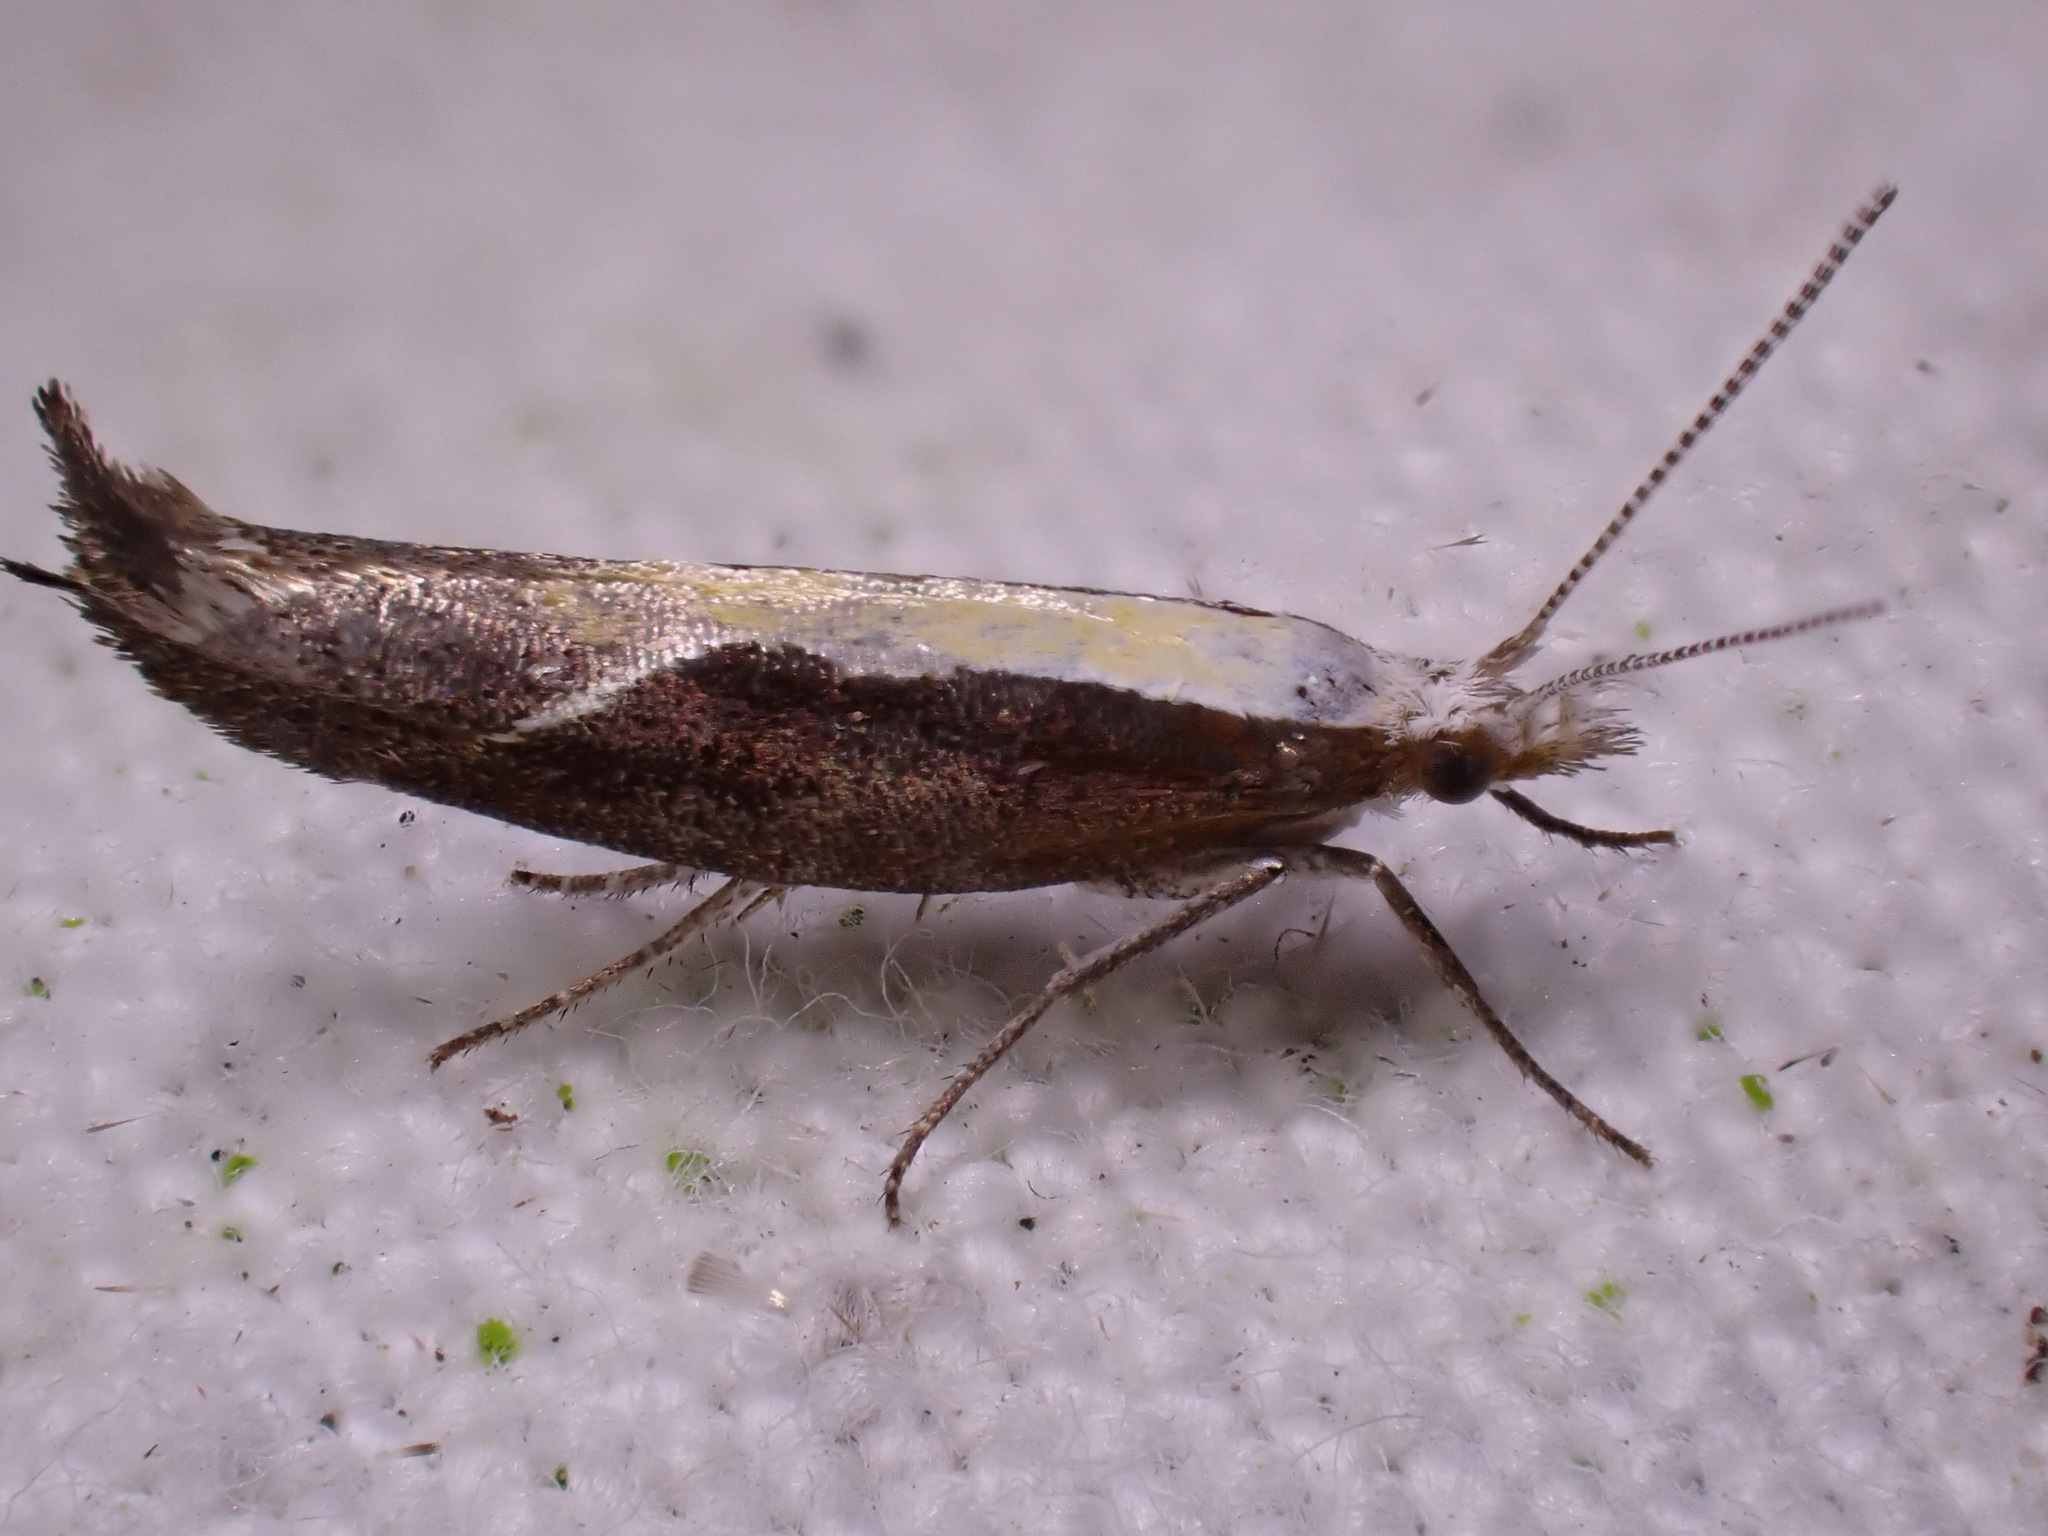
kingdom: Animalia
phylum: Arthropoda
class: Insecta
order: Lepidoptera
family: Ypsolophidae
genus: Ypsolopha
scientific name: Ypsolopha dentella
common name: Honeysuckle moth
